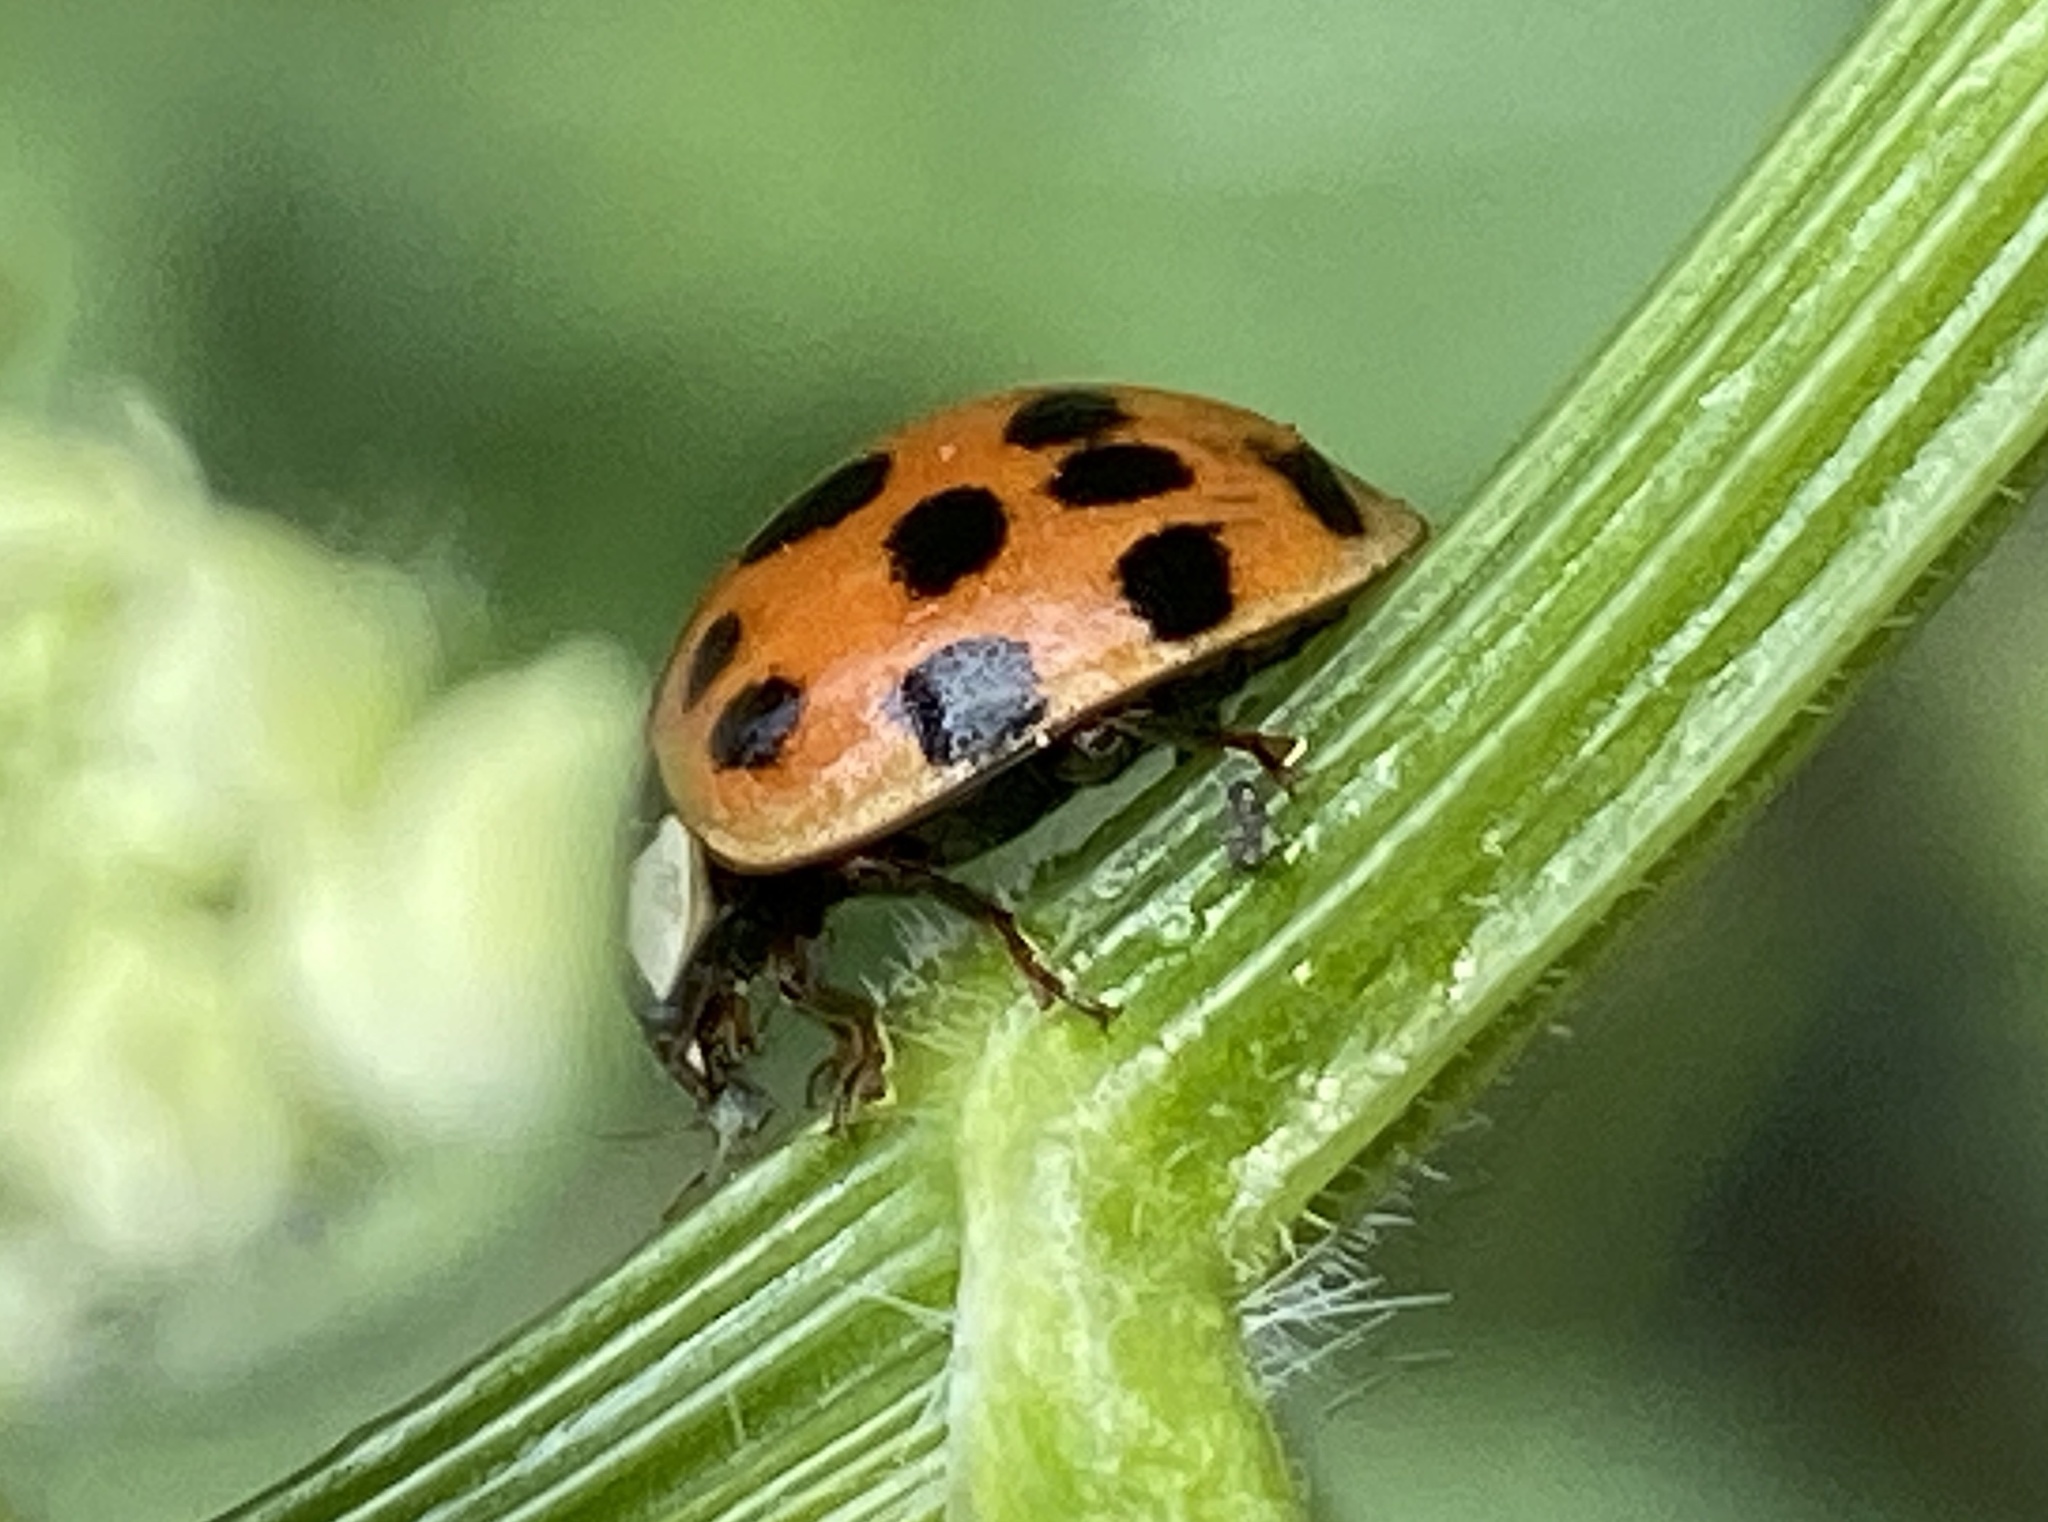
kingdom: Animalia
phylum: Arthropoda
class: Insecta
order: Coleoptera
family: Coccinellidae
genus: Harmonia
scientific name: Harmonia axyridis
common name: Harlequin ladybird
